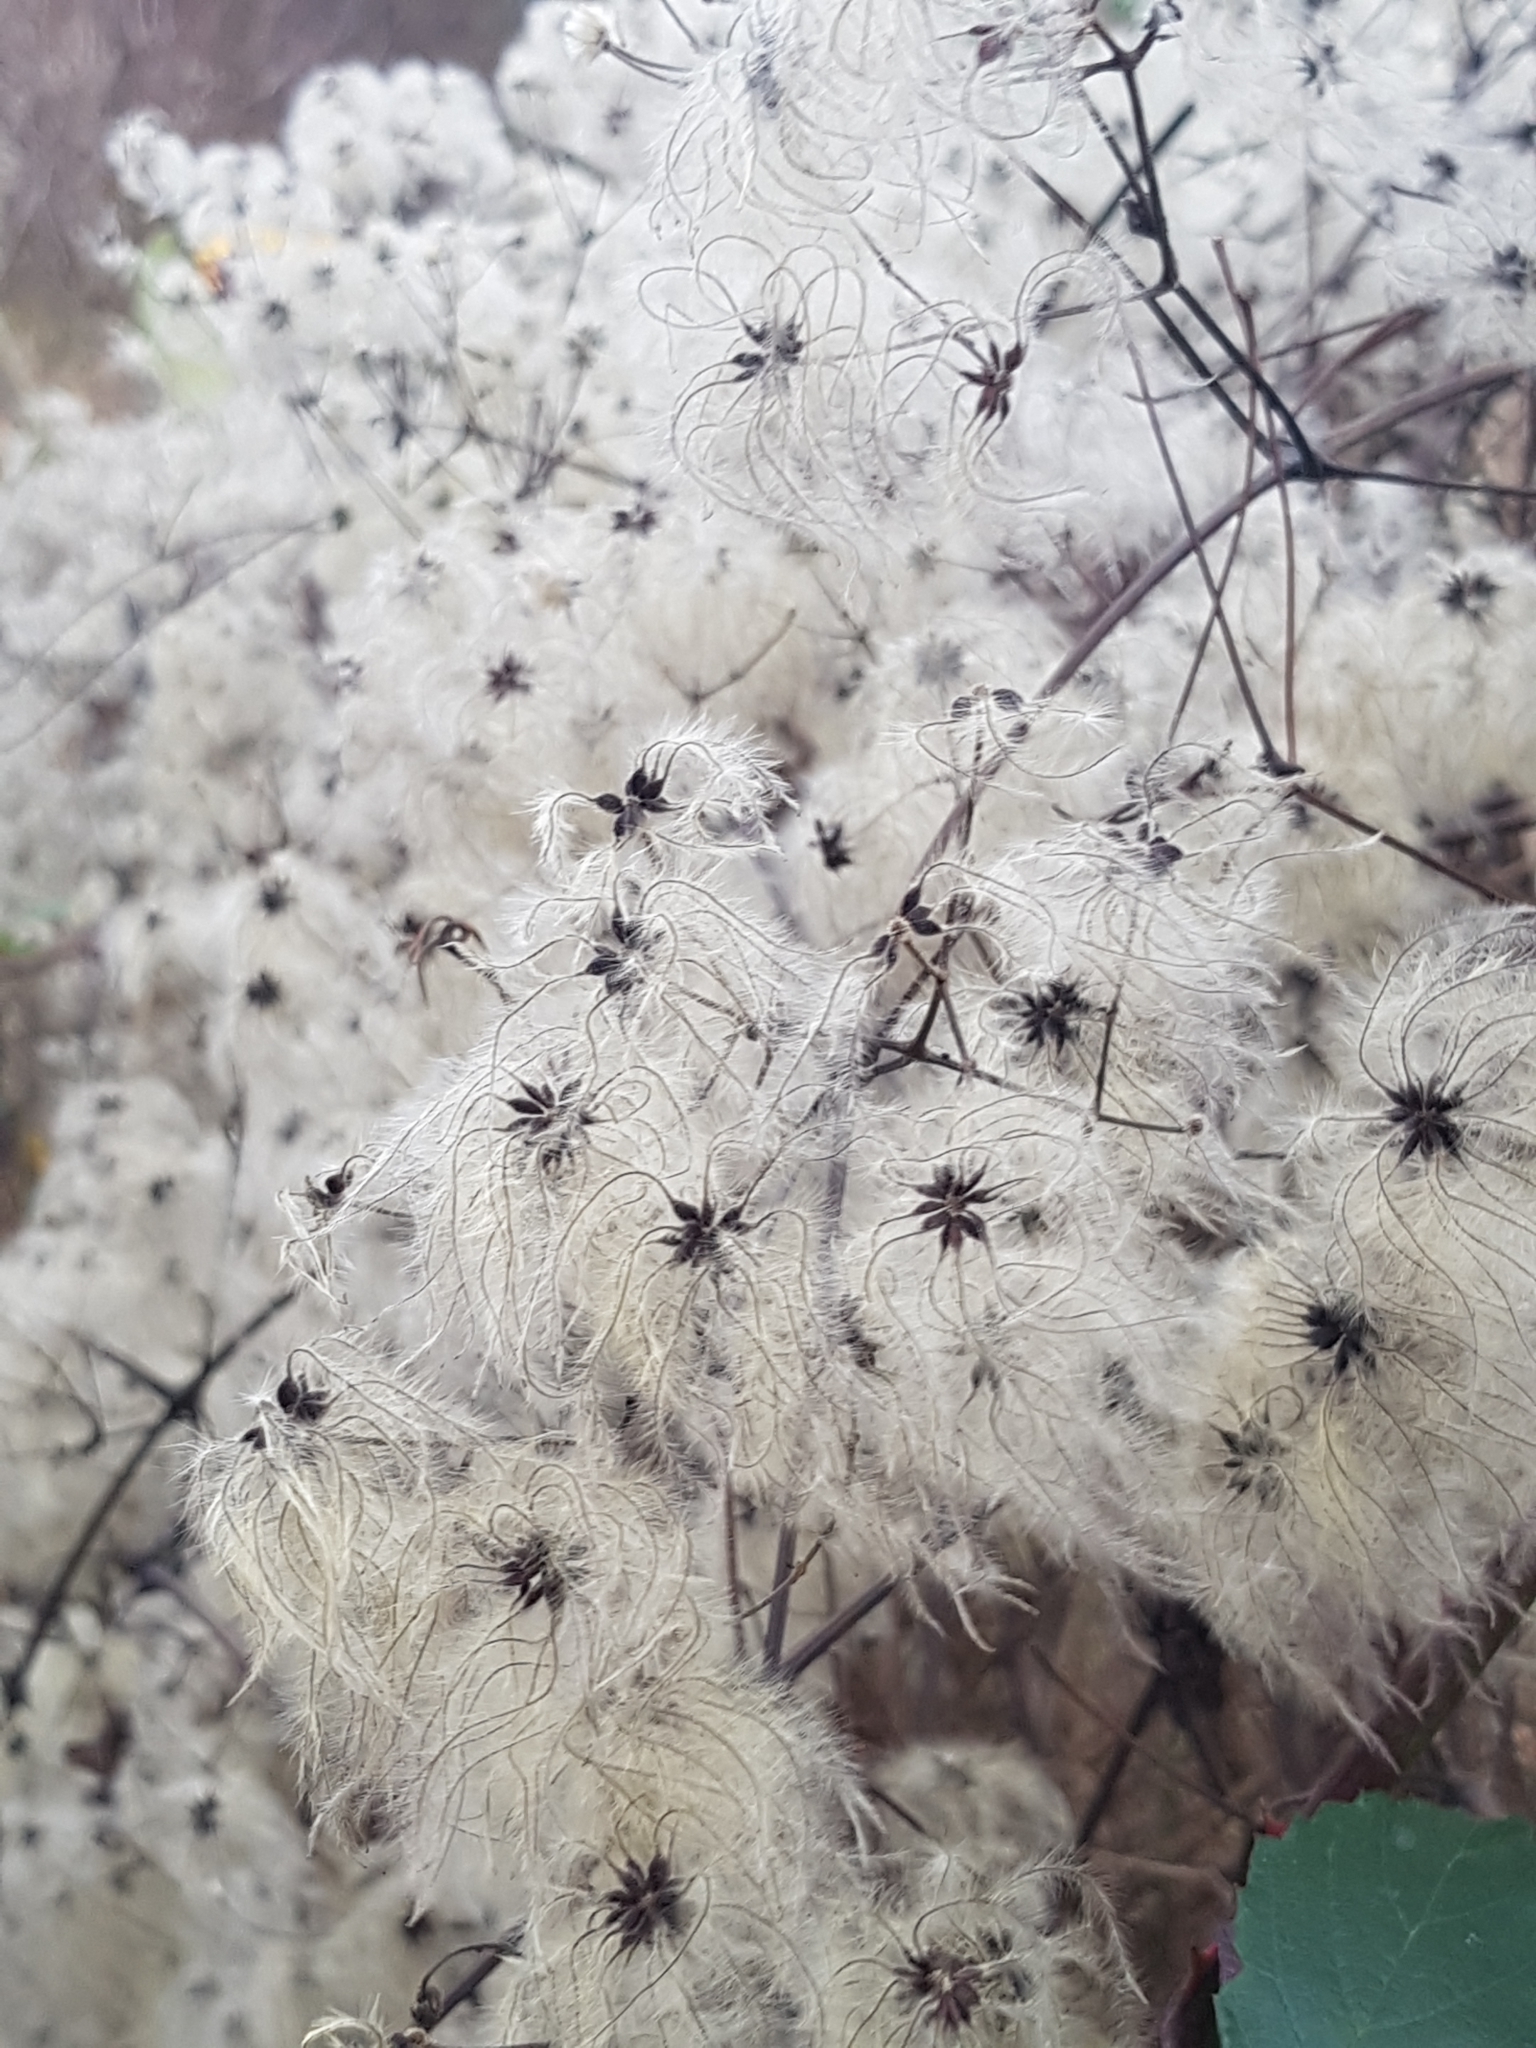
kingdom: Plantae
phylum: Tracheophyta
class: Magnoliopsida
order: Ranunculales
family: Ranunculaceae
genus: Clematis
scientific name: Clematis vitalba
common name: Evergreen clematis
